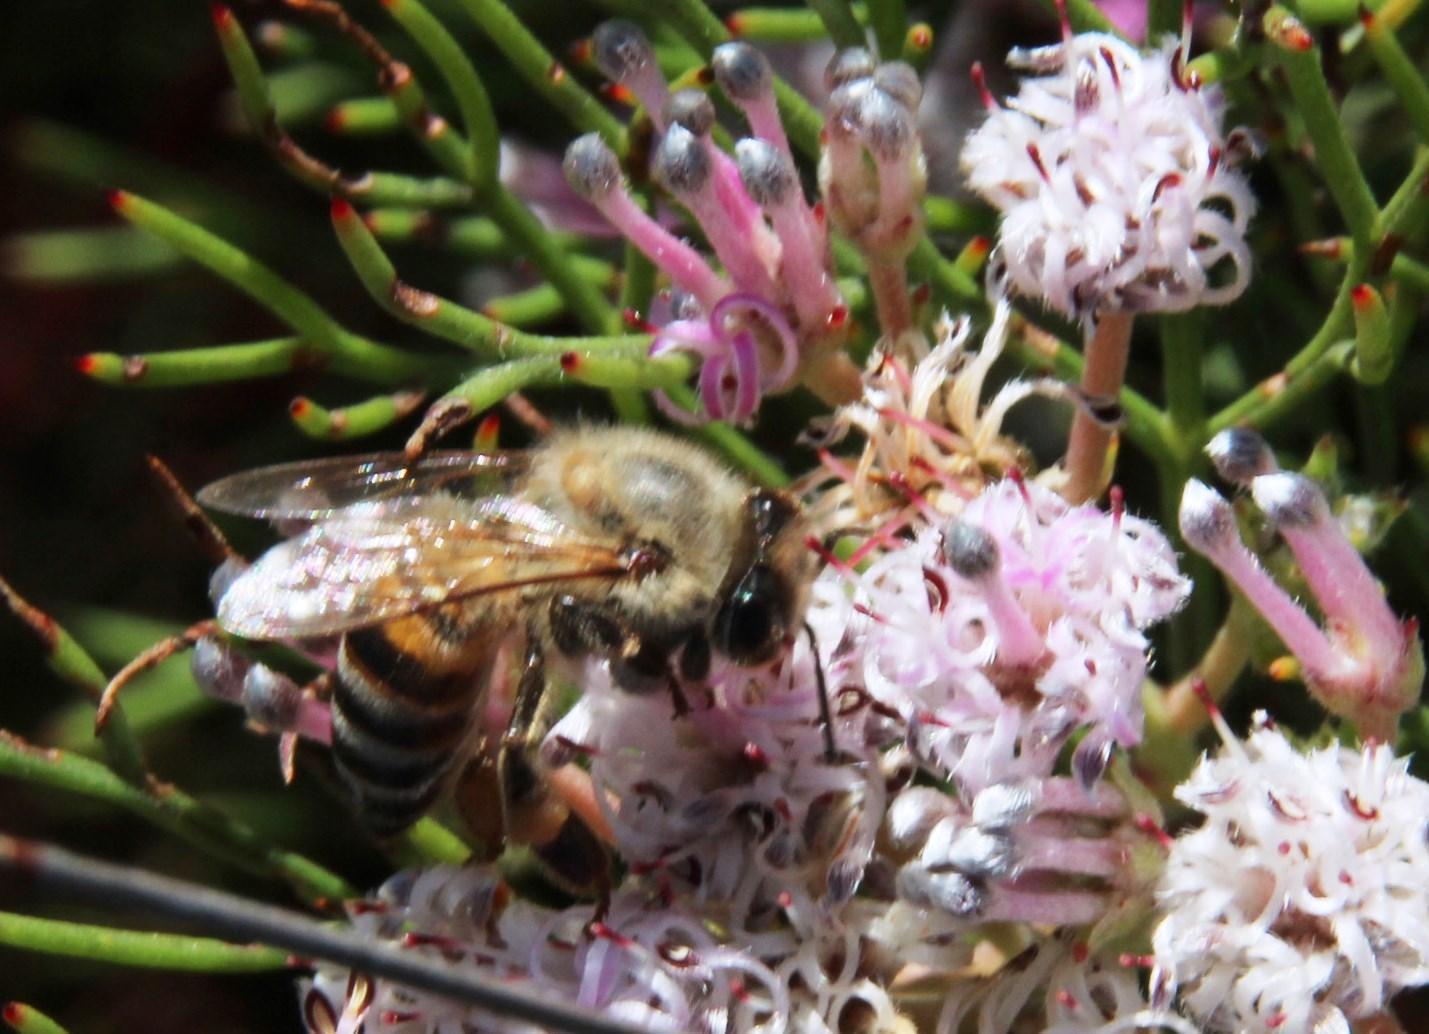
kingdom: Plantae
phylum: Tracheophyta
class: Magnoliopsida
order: Proteales
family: Proteaceae
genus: Serruria
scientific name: Serruria fasciflora
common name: Common pin spiderhead
